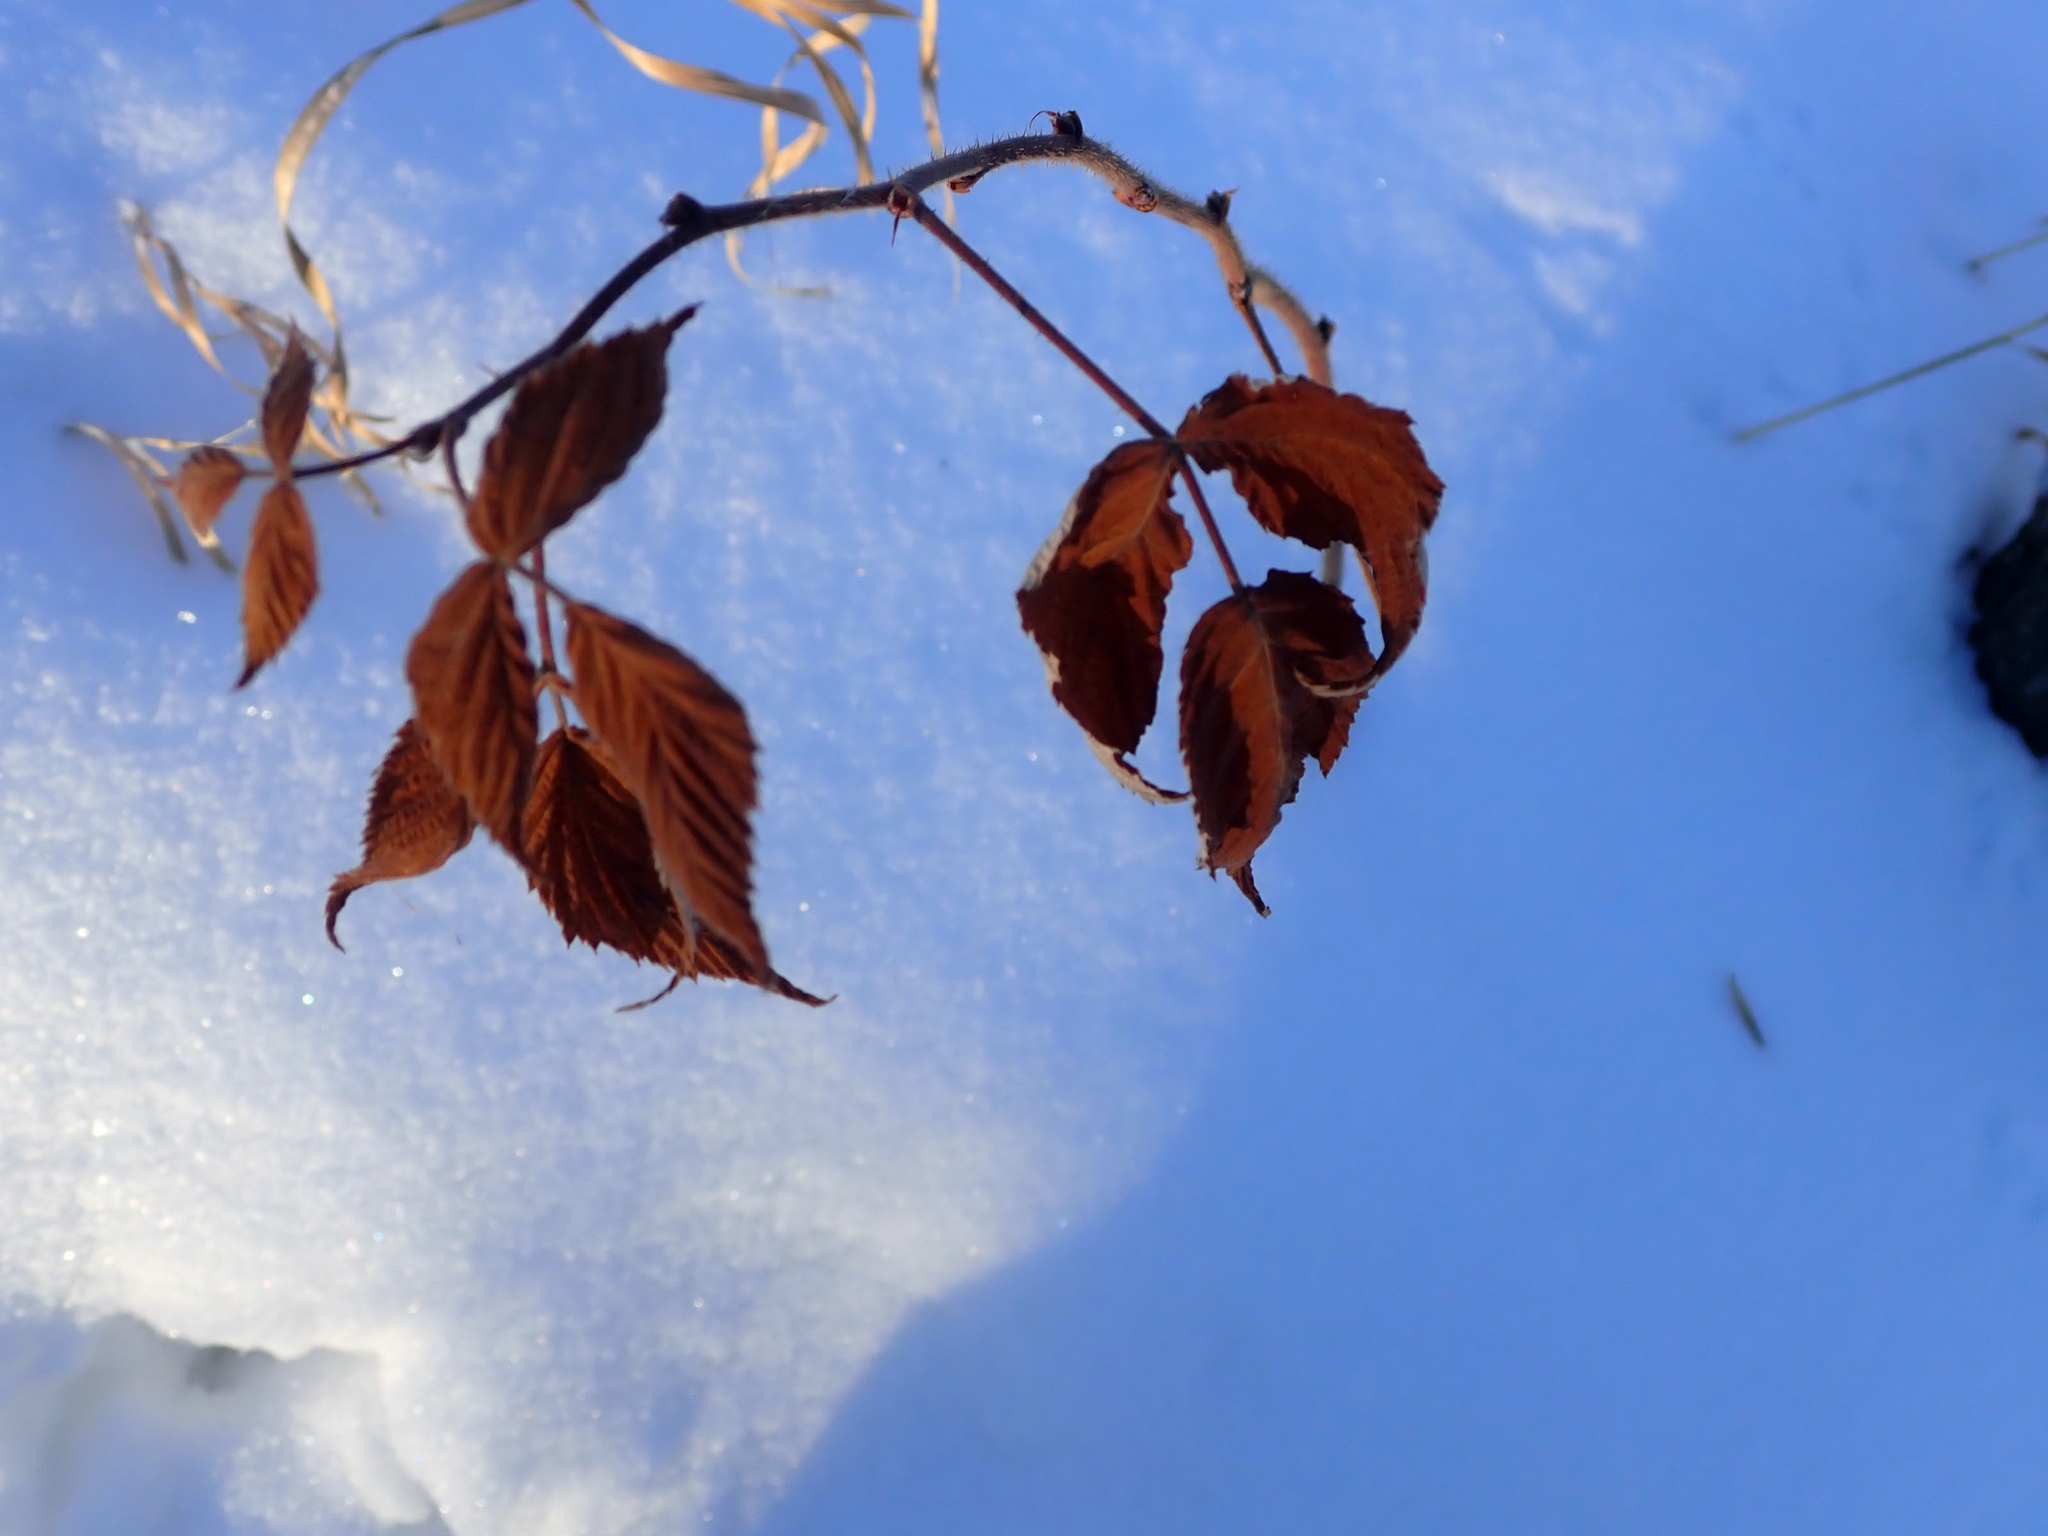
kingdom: Plantae
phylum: Tracheophyta
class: Magnoliopsida
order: Rosales
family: Rosaceae
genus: Rubus
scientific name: Rubus idaeus
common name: Raspberry
